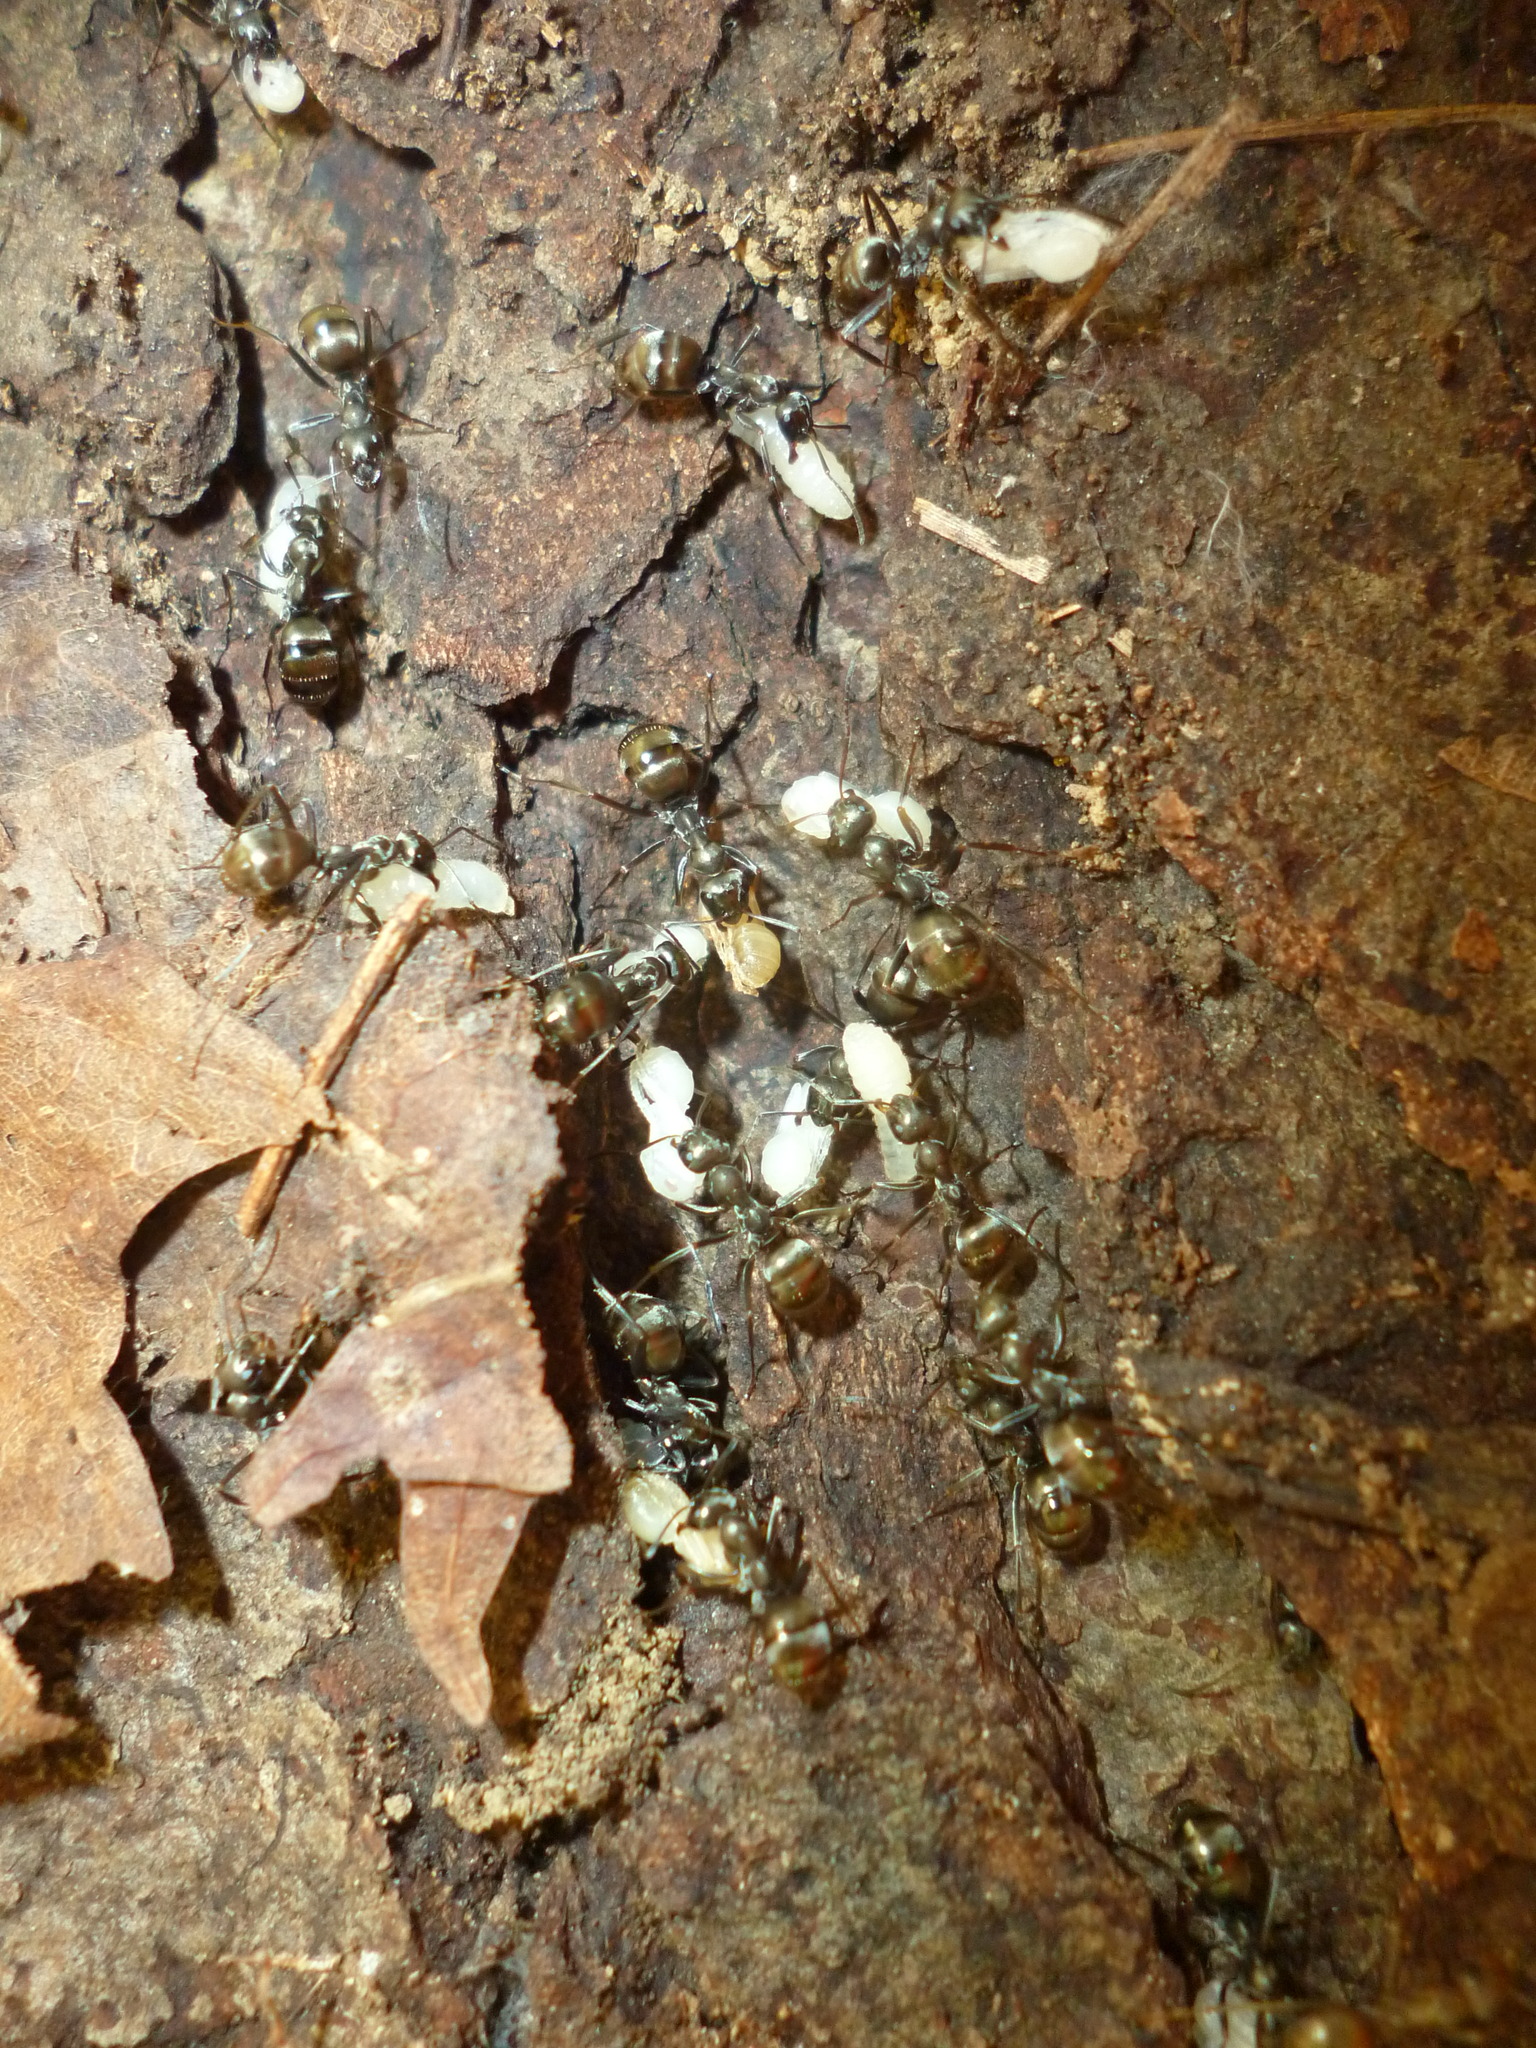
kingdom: Animalia
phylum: Arthropoda
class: Insecta
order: Hymenoptera
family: Formicidae
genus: Formica
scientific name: Formica
